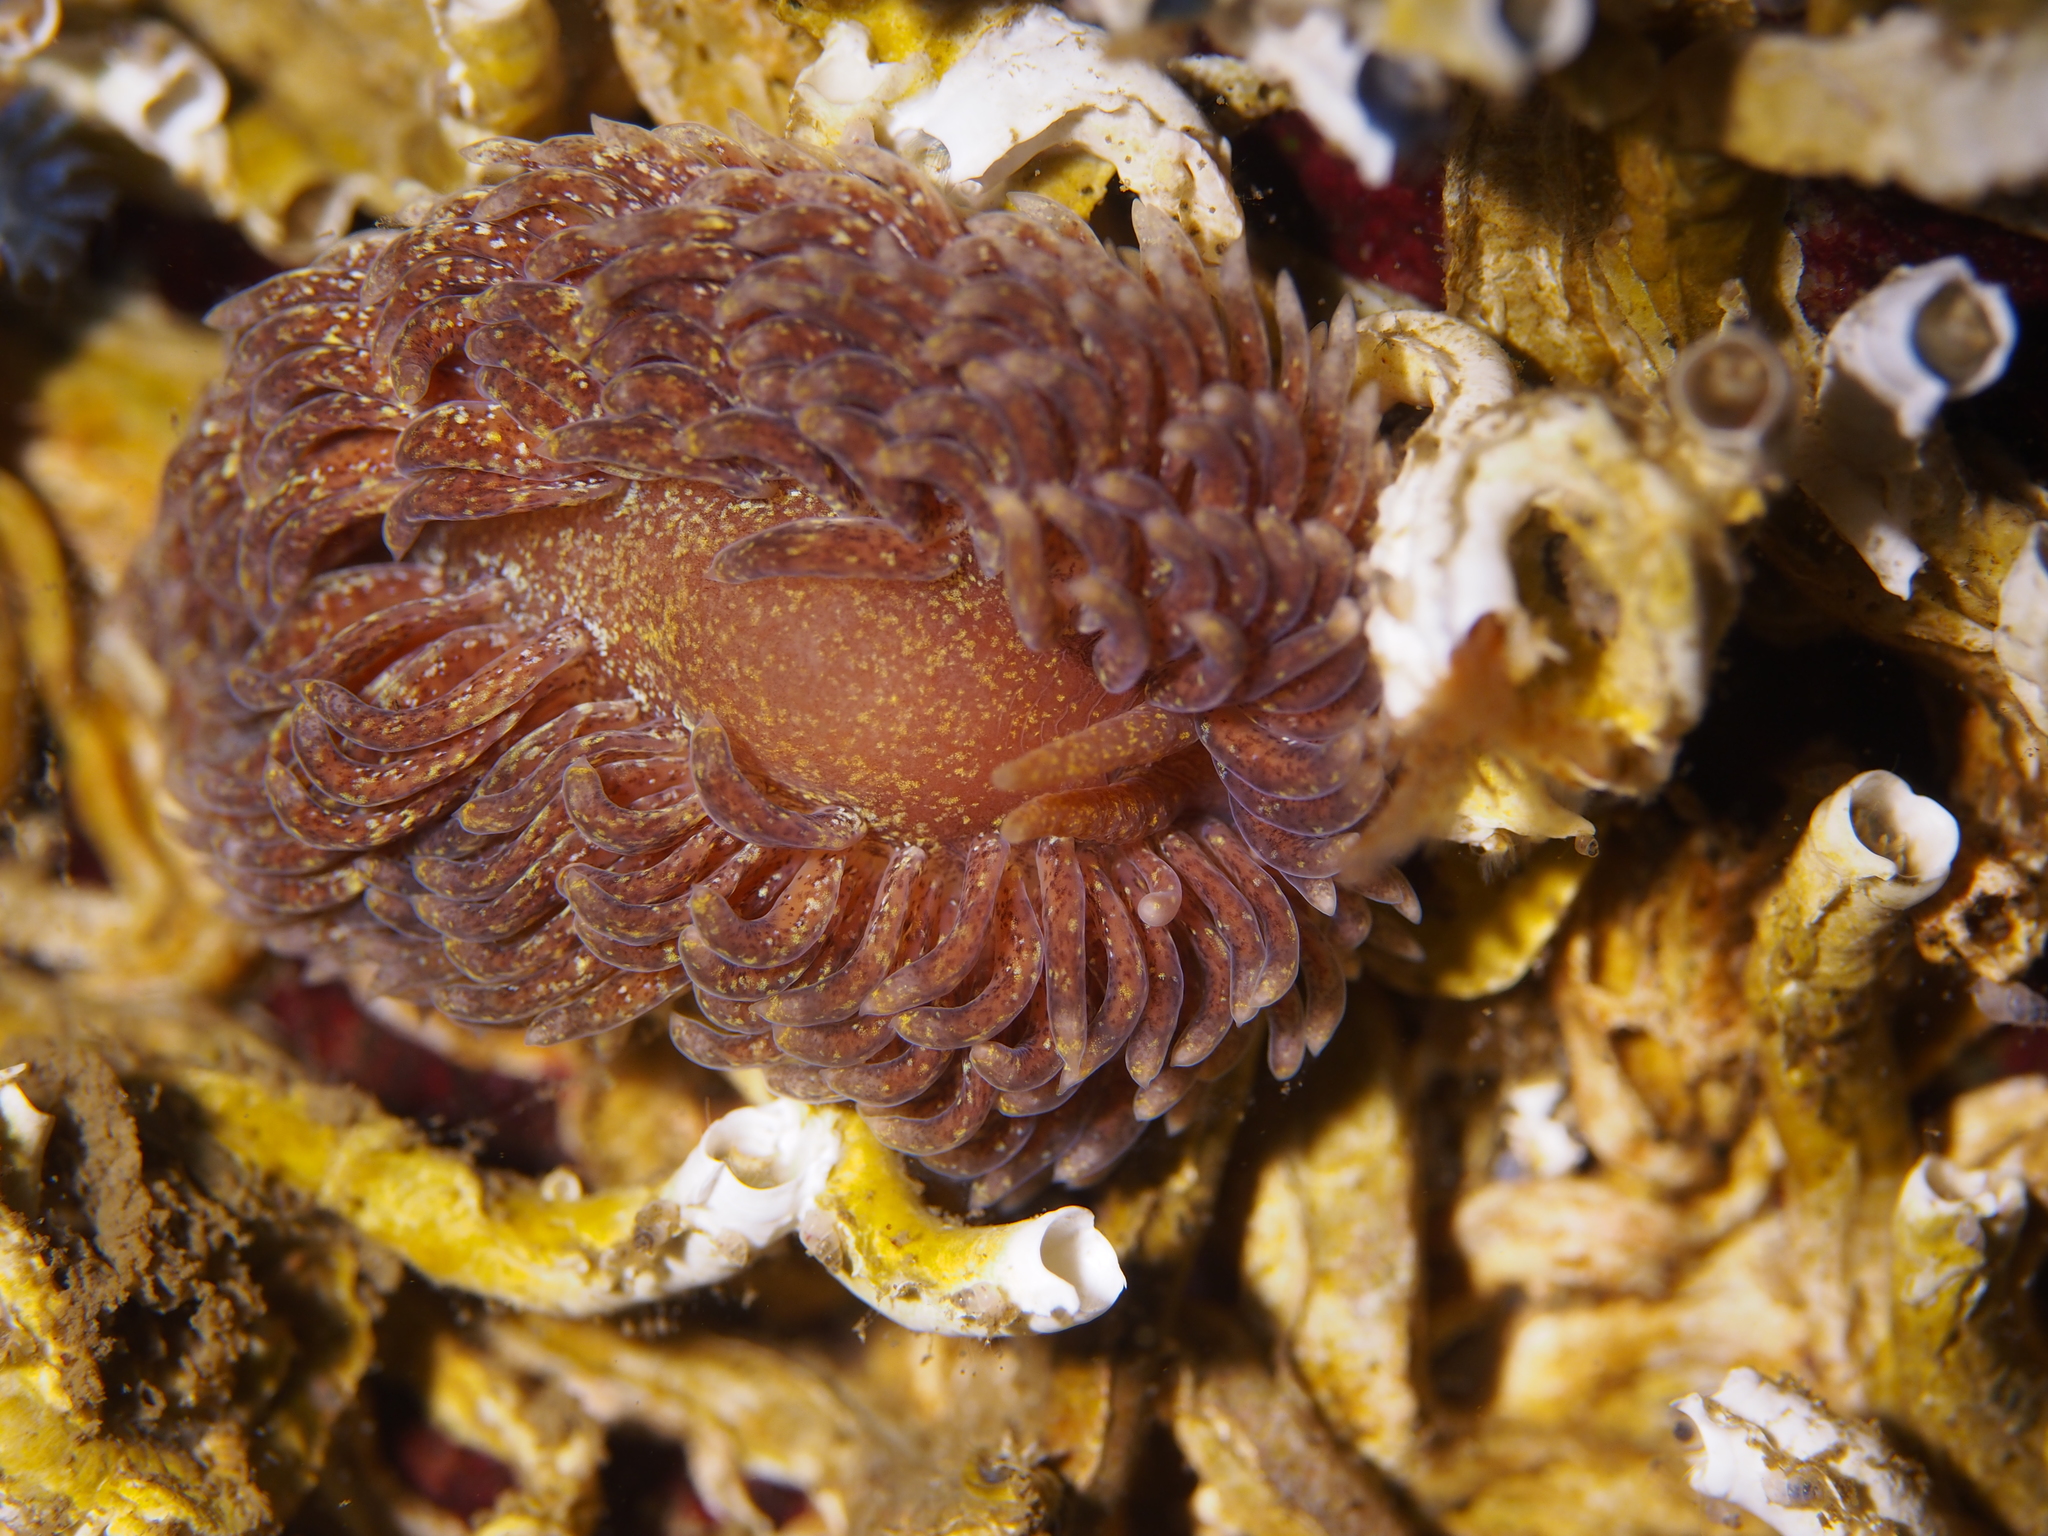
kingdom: Animalia
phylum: Mollusca
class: Gastropoda
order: Nudibranchia
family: Aeolidiidae
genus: Aeolidia
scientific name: Aeolidia papillosa
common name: Common grey sea slug
